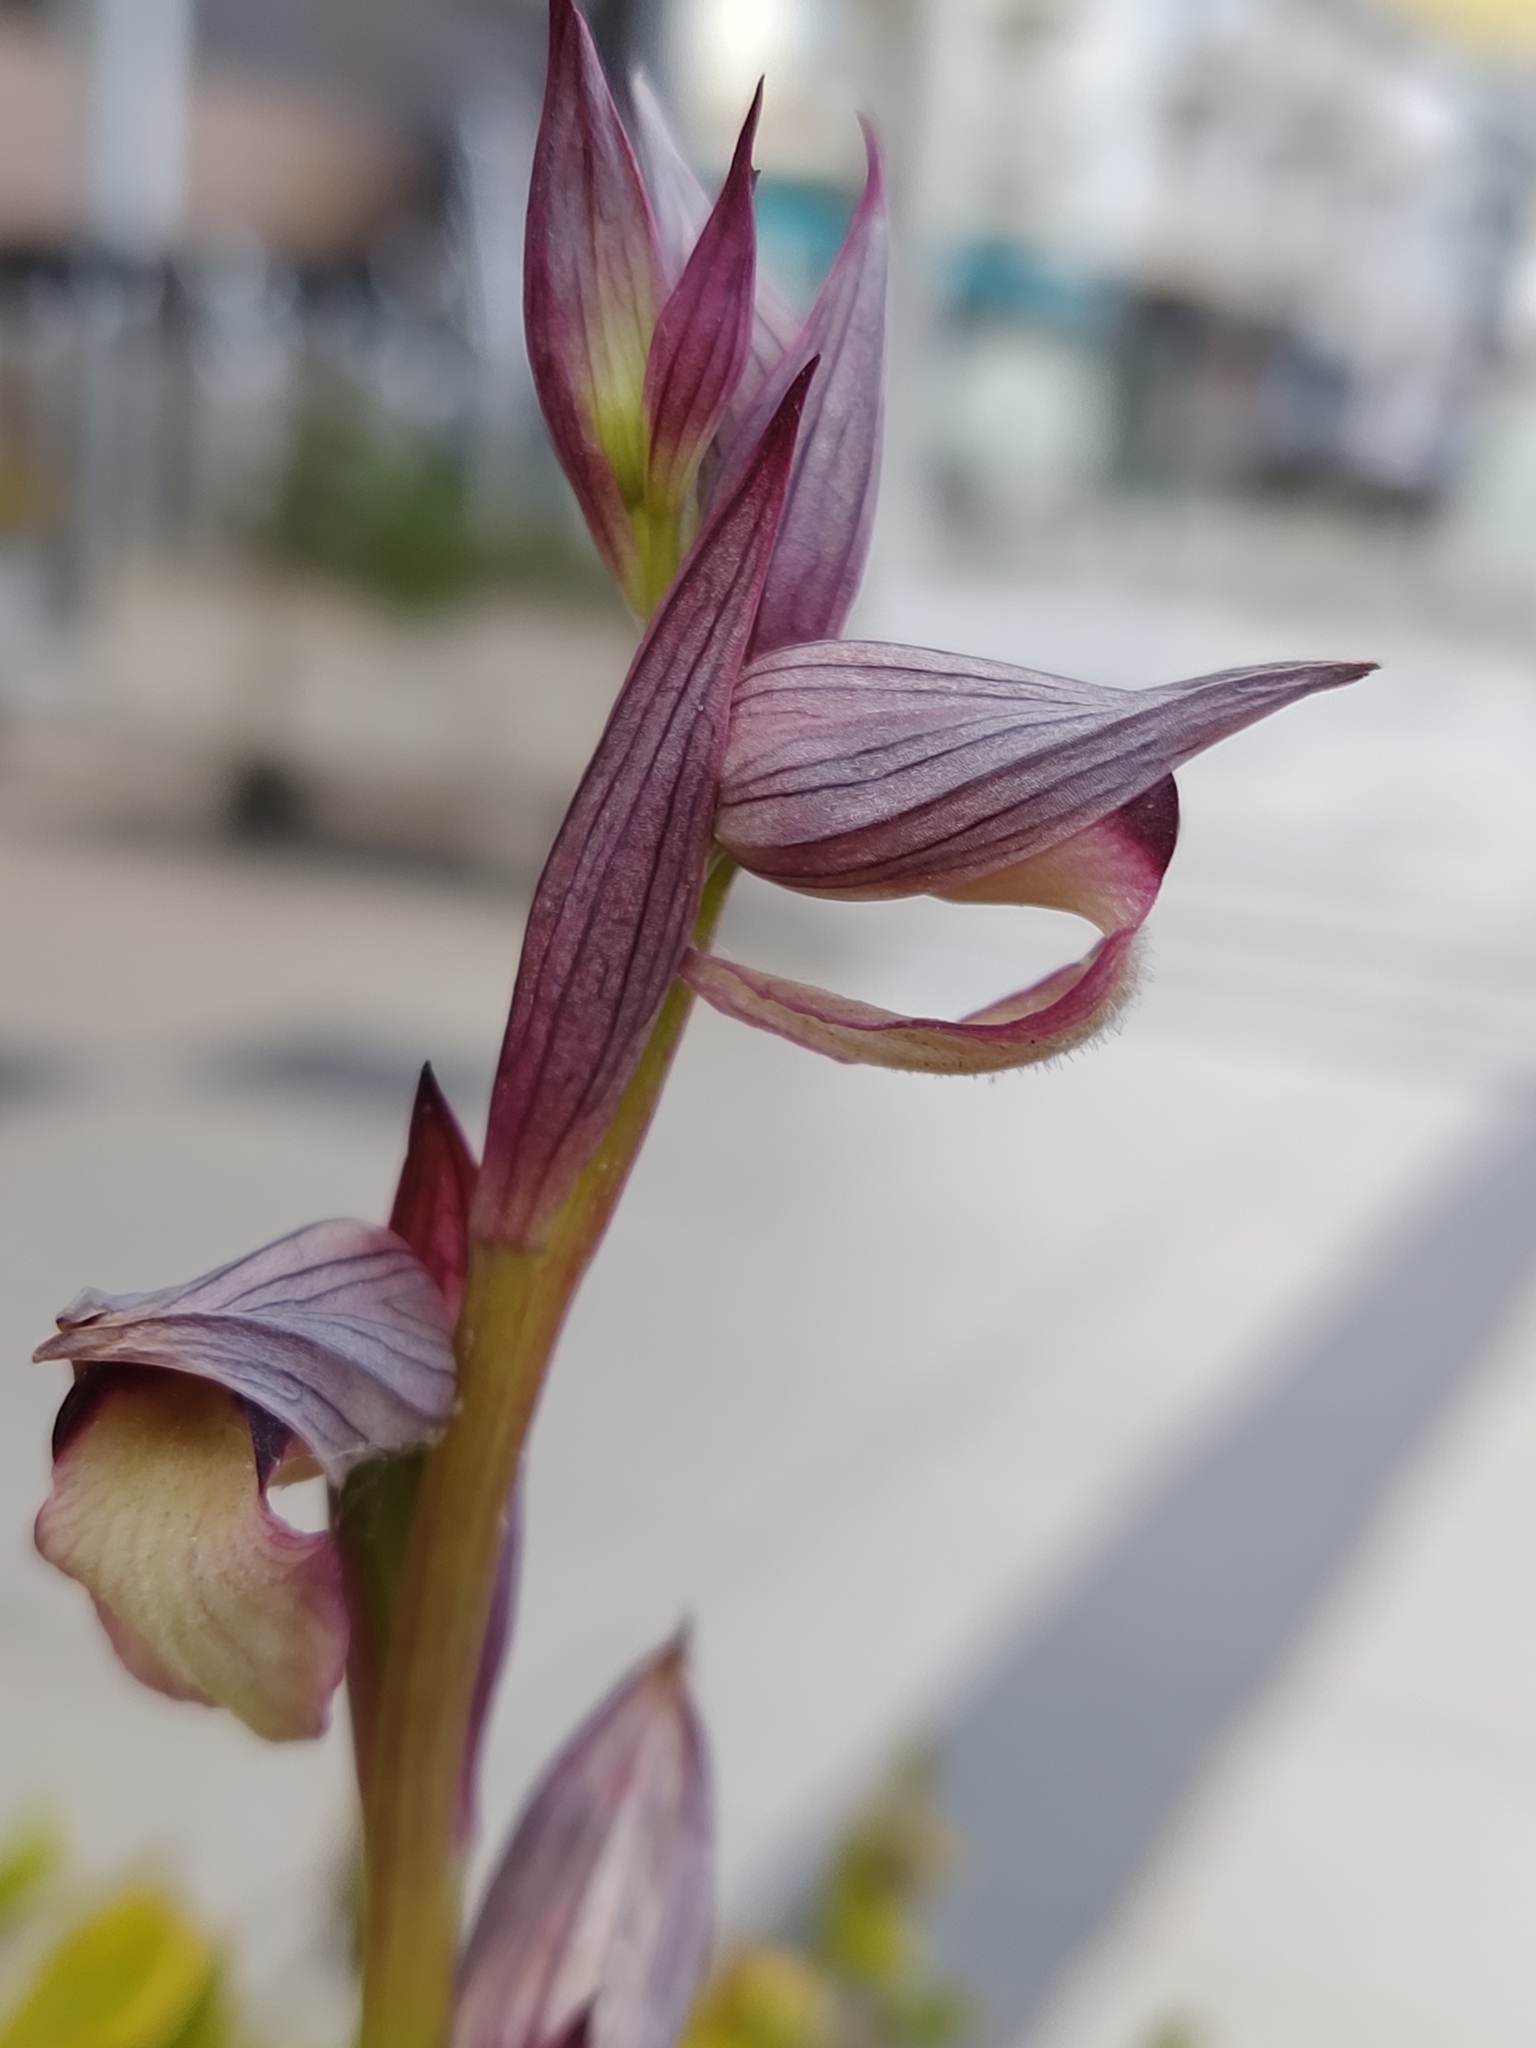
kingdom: Plantae
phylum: Tracheophyta
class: Liliopsida
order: Asparagales
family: Orchidaceae
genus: Serapias
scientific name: Serapias lingua
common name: Tongue-orchid
